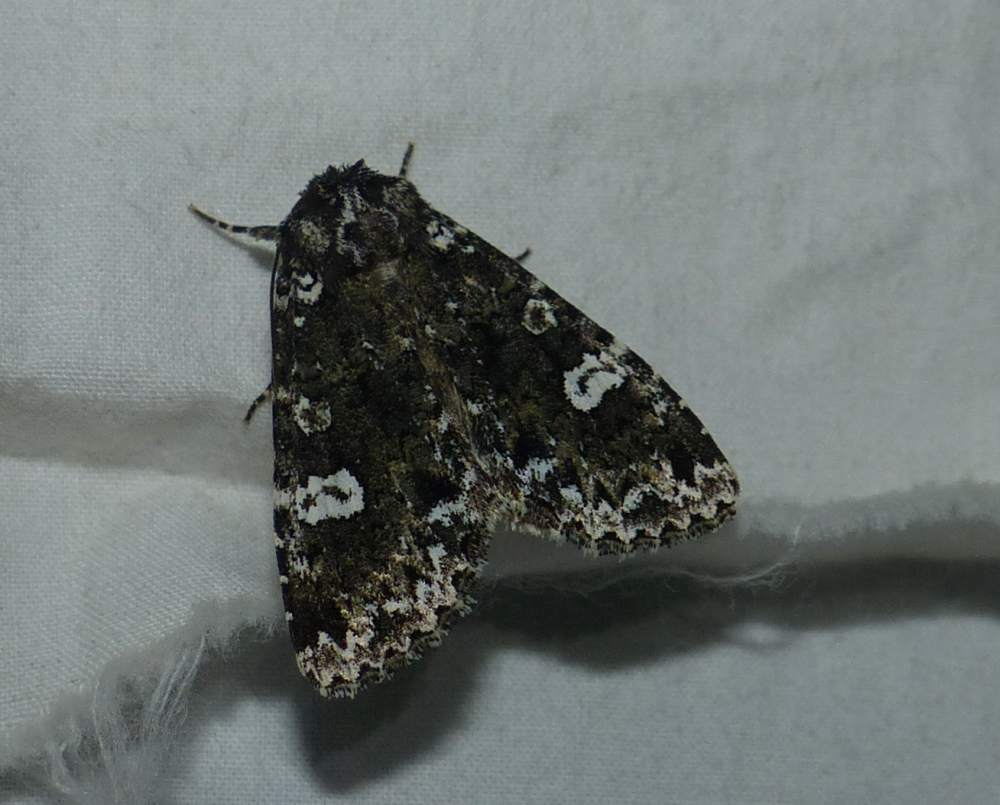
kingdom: Animalia
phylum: Arthropoda
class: Insecta
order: Lepidoptera
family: Noctuidae
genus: Melanchra
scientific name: Melanchra adjuncta
